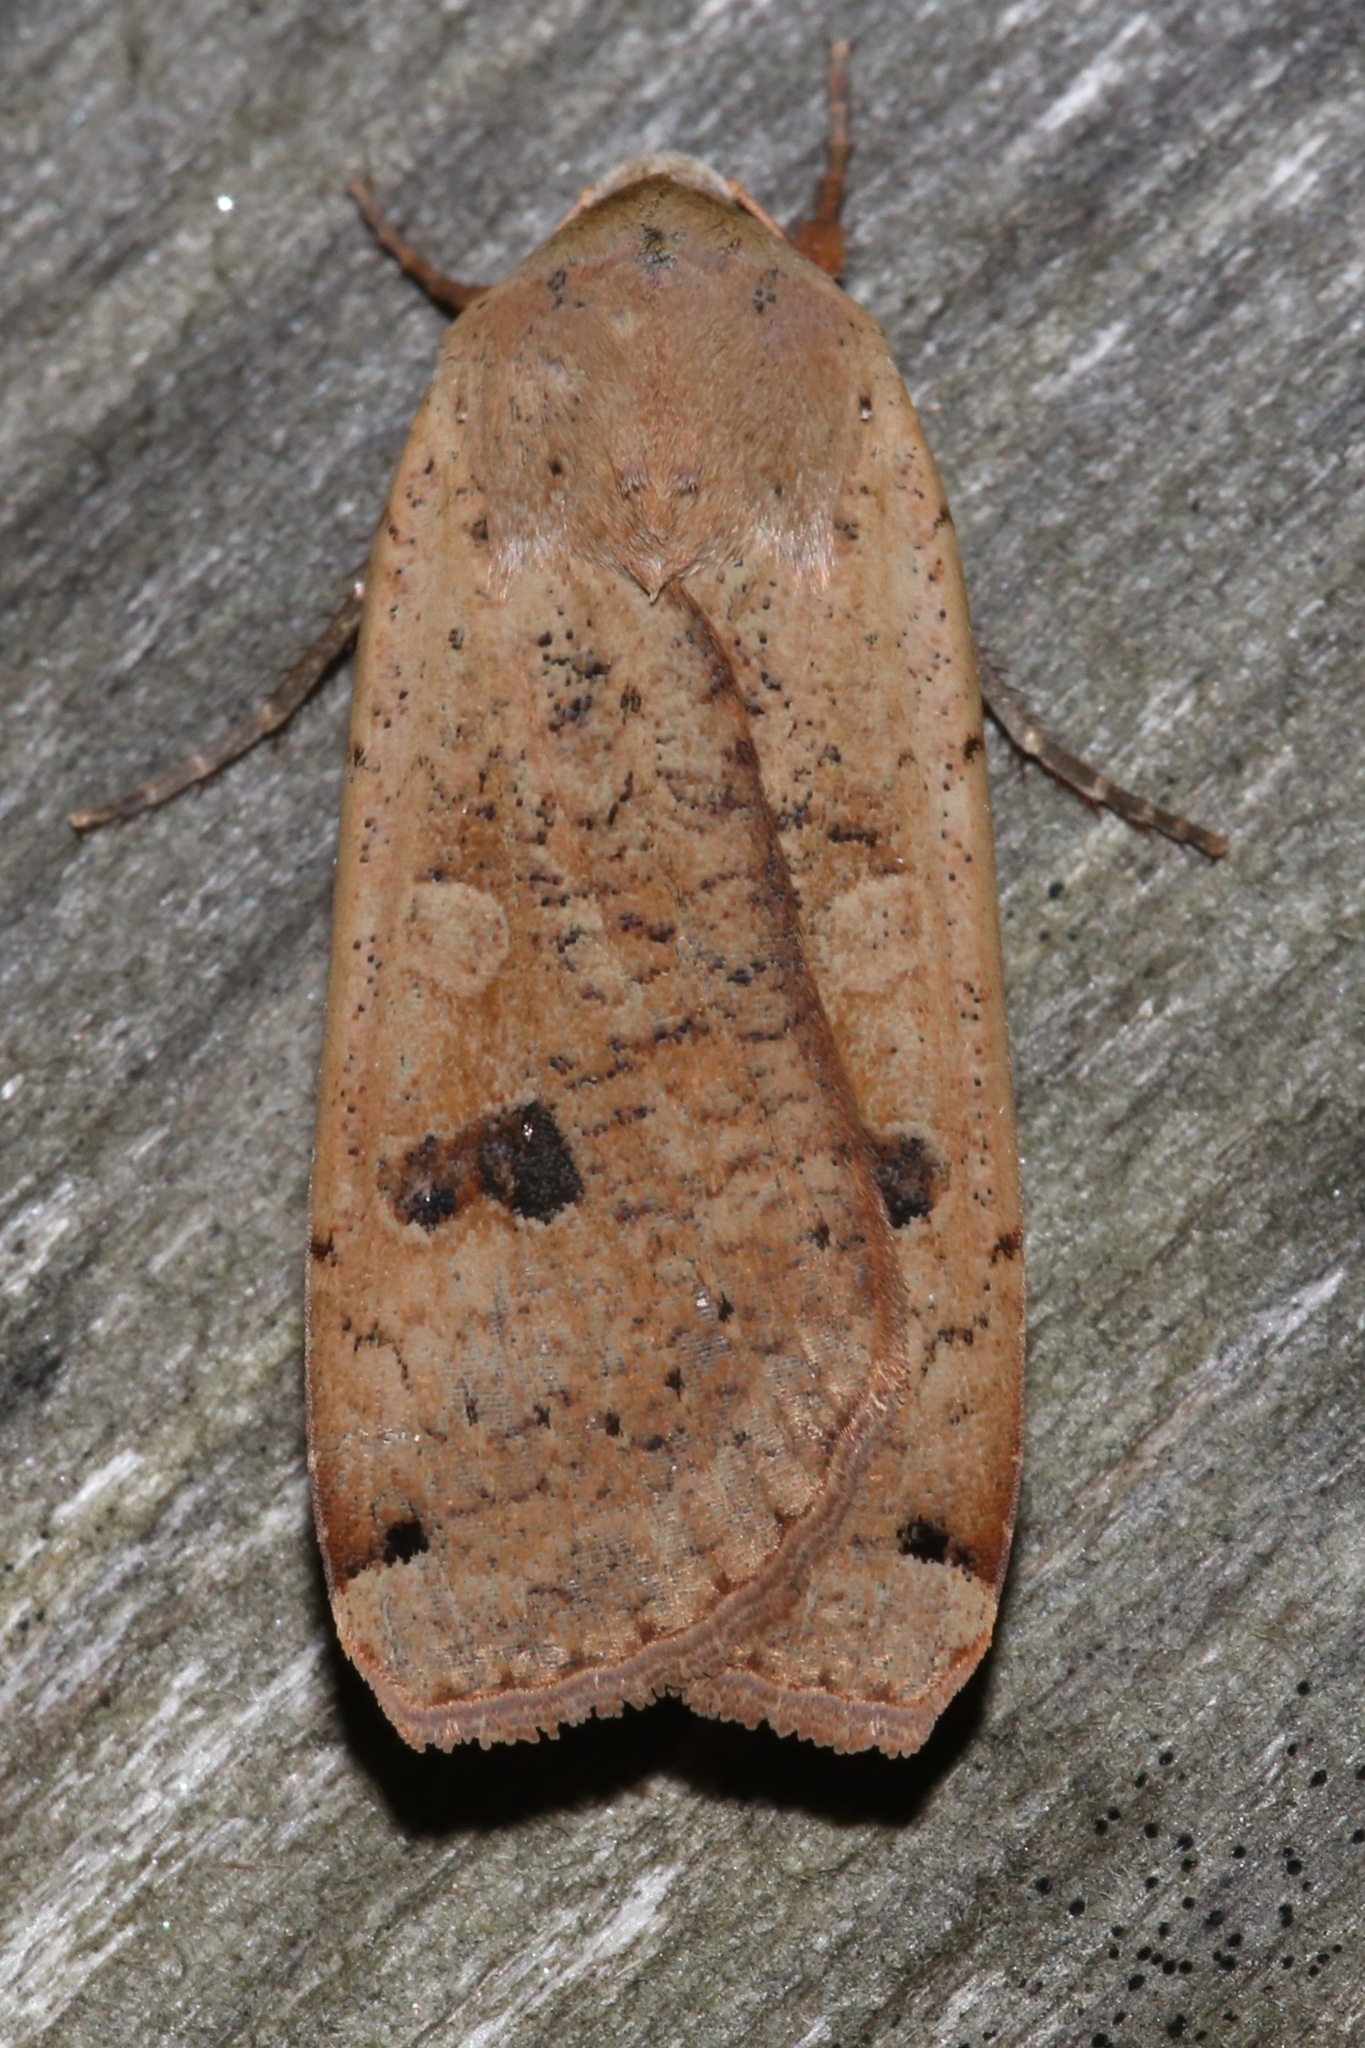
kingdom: Animalia
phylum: Arthropoda
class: Insecta
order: Lepidoptera
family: Noctuidae
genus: Noctua
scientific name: Noctua pronuba
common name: Large yellow underwing
